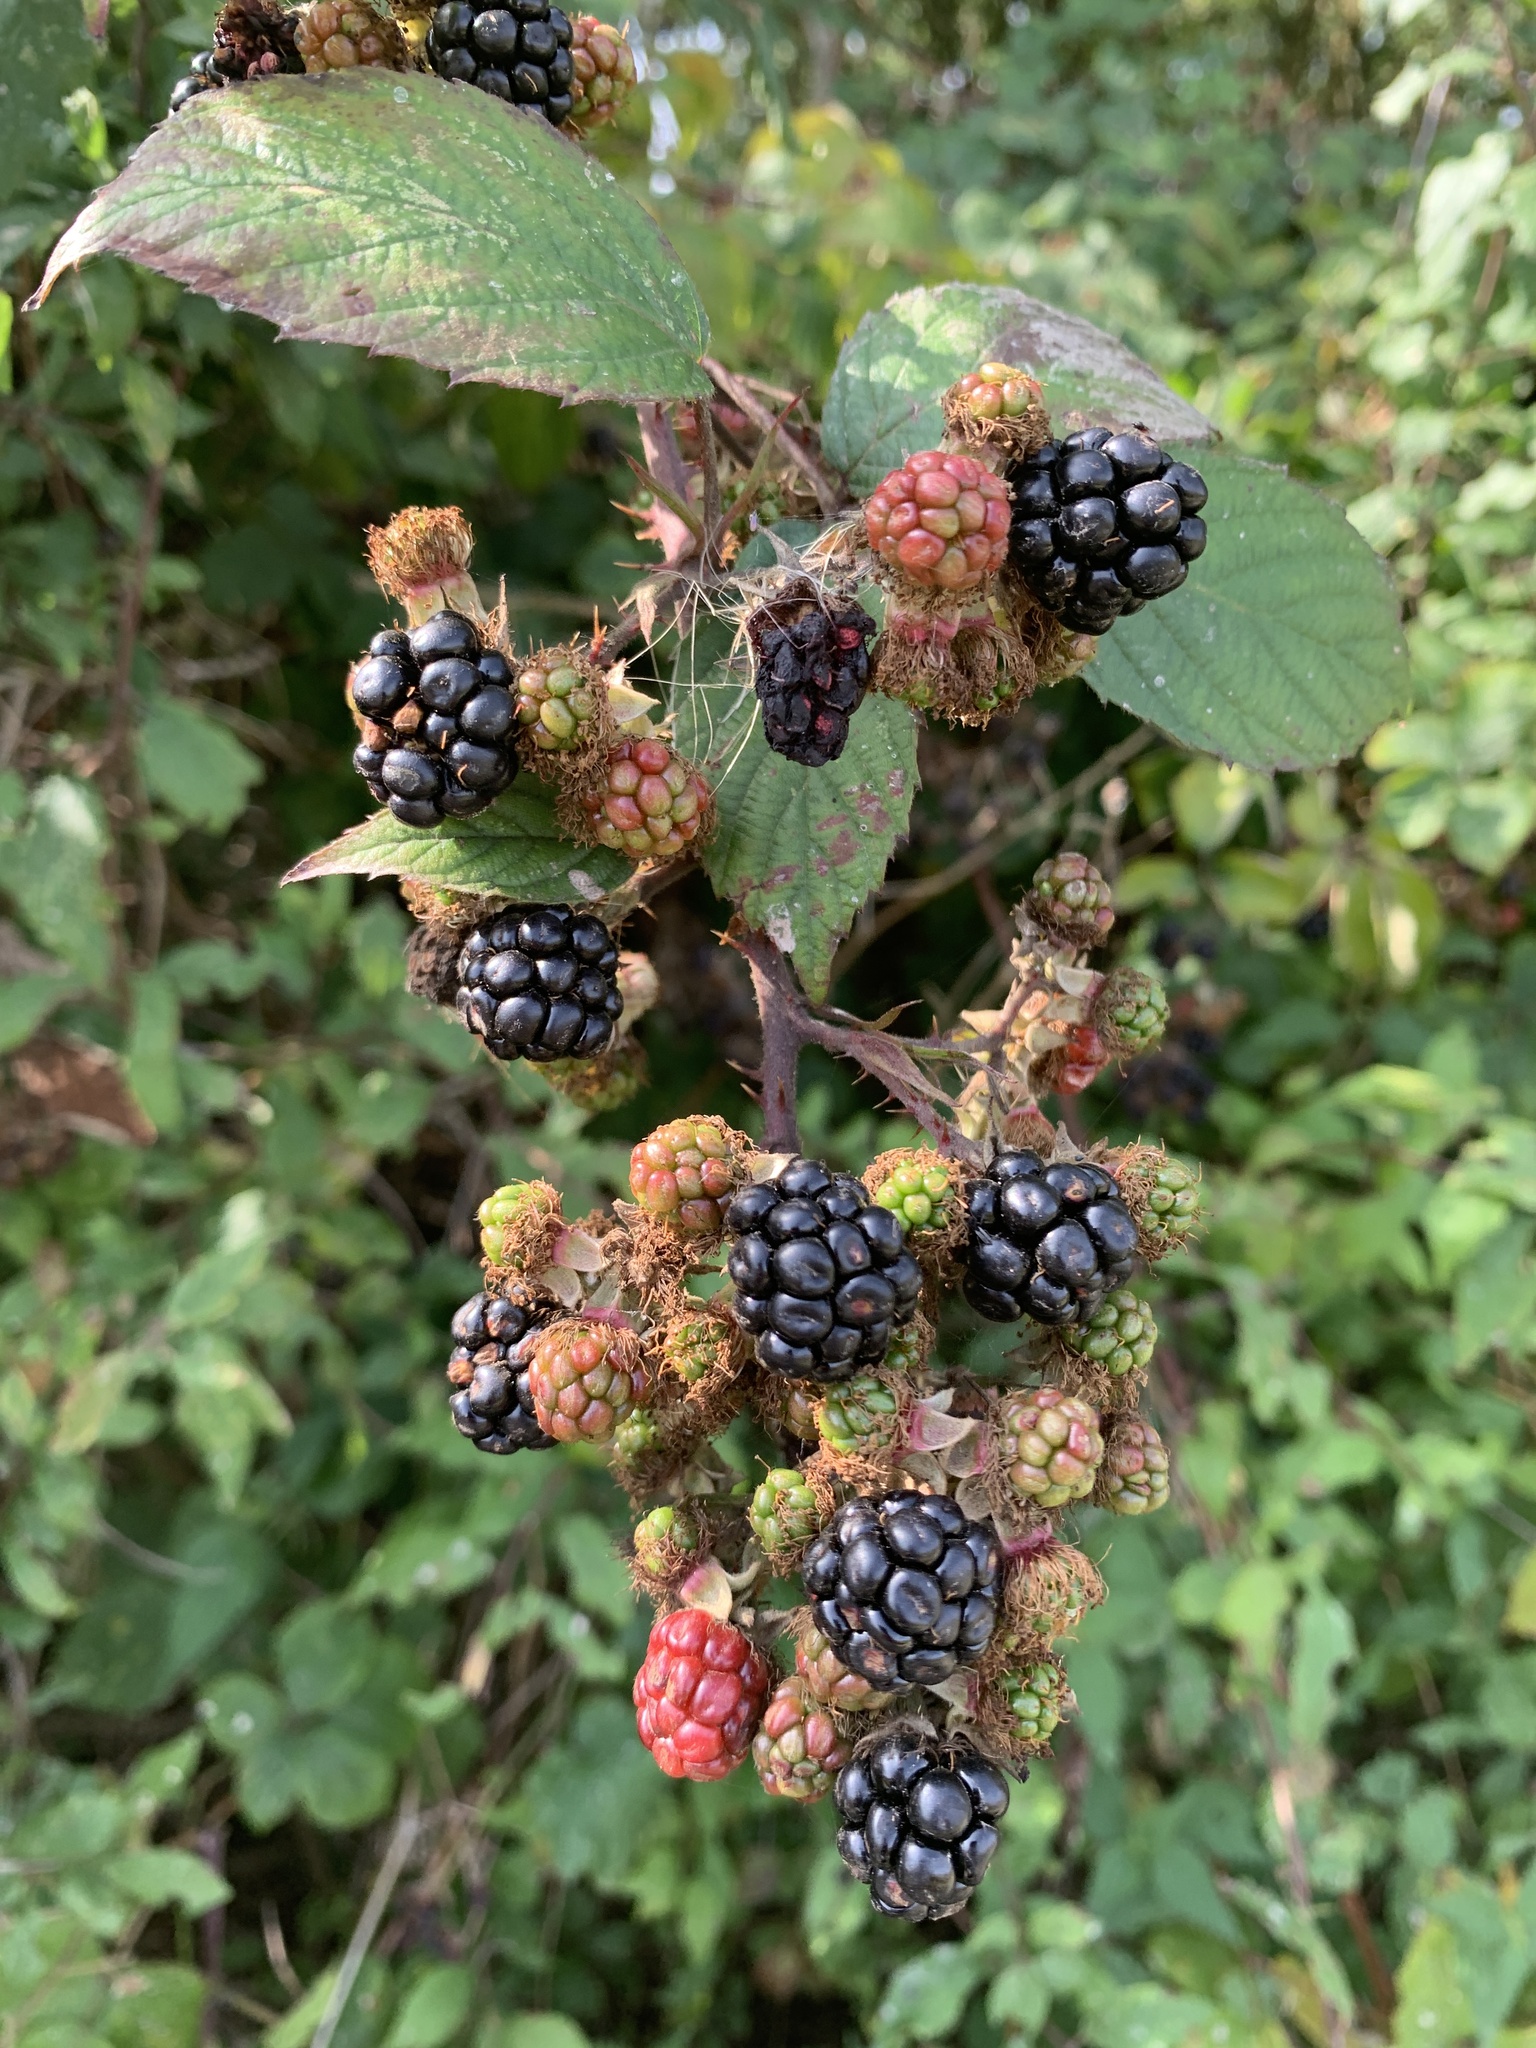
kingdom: Plantae
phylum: Tracheophyta
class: Magnoliopsida
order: Rosales
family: Rosaceae
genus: Rubus
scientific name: Rubus ulmifolius
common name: Elmleaf blackberry
